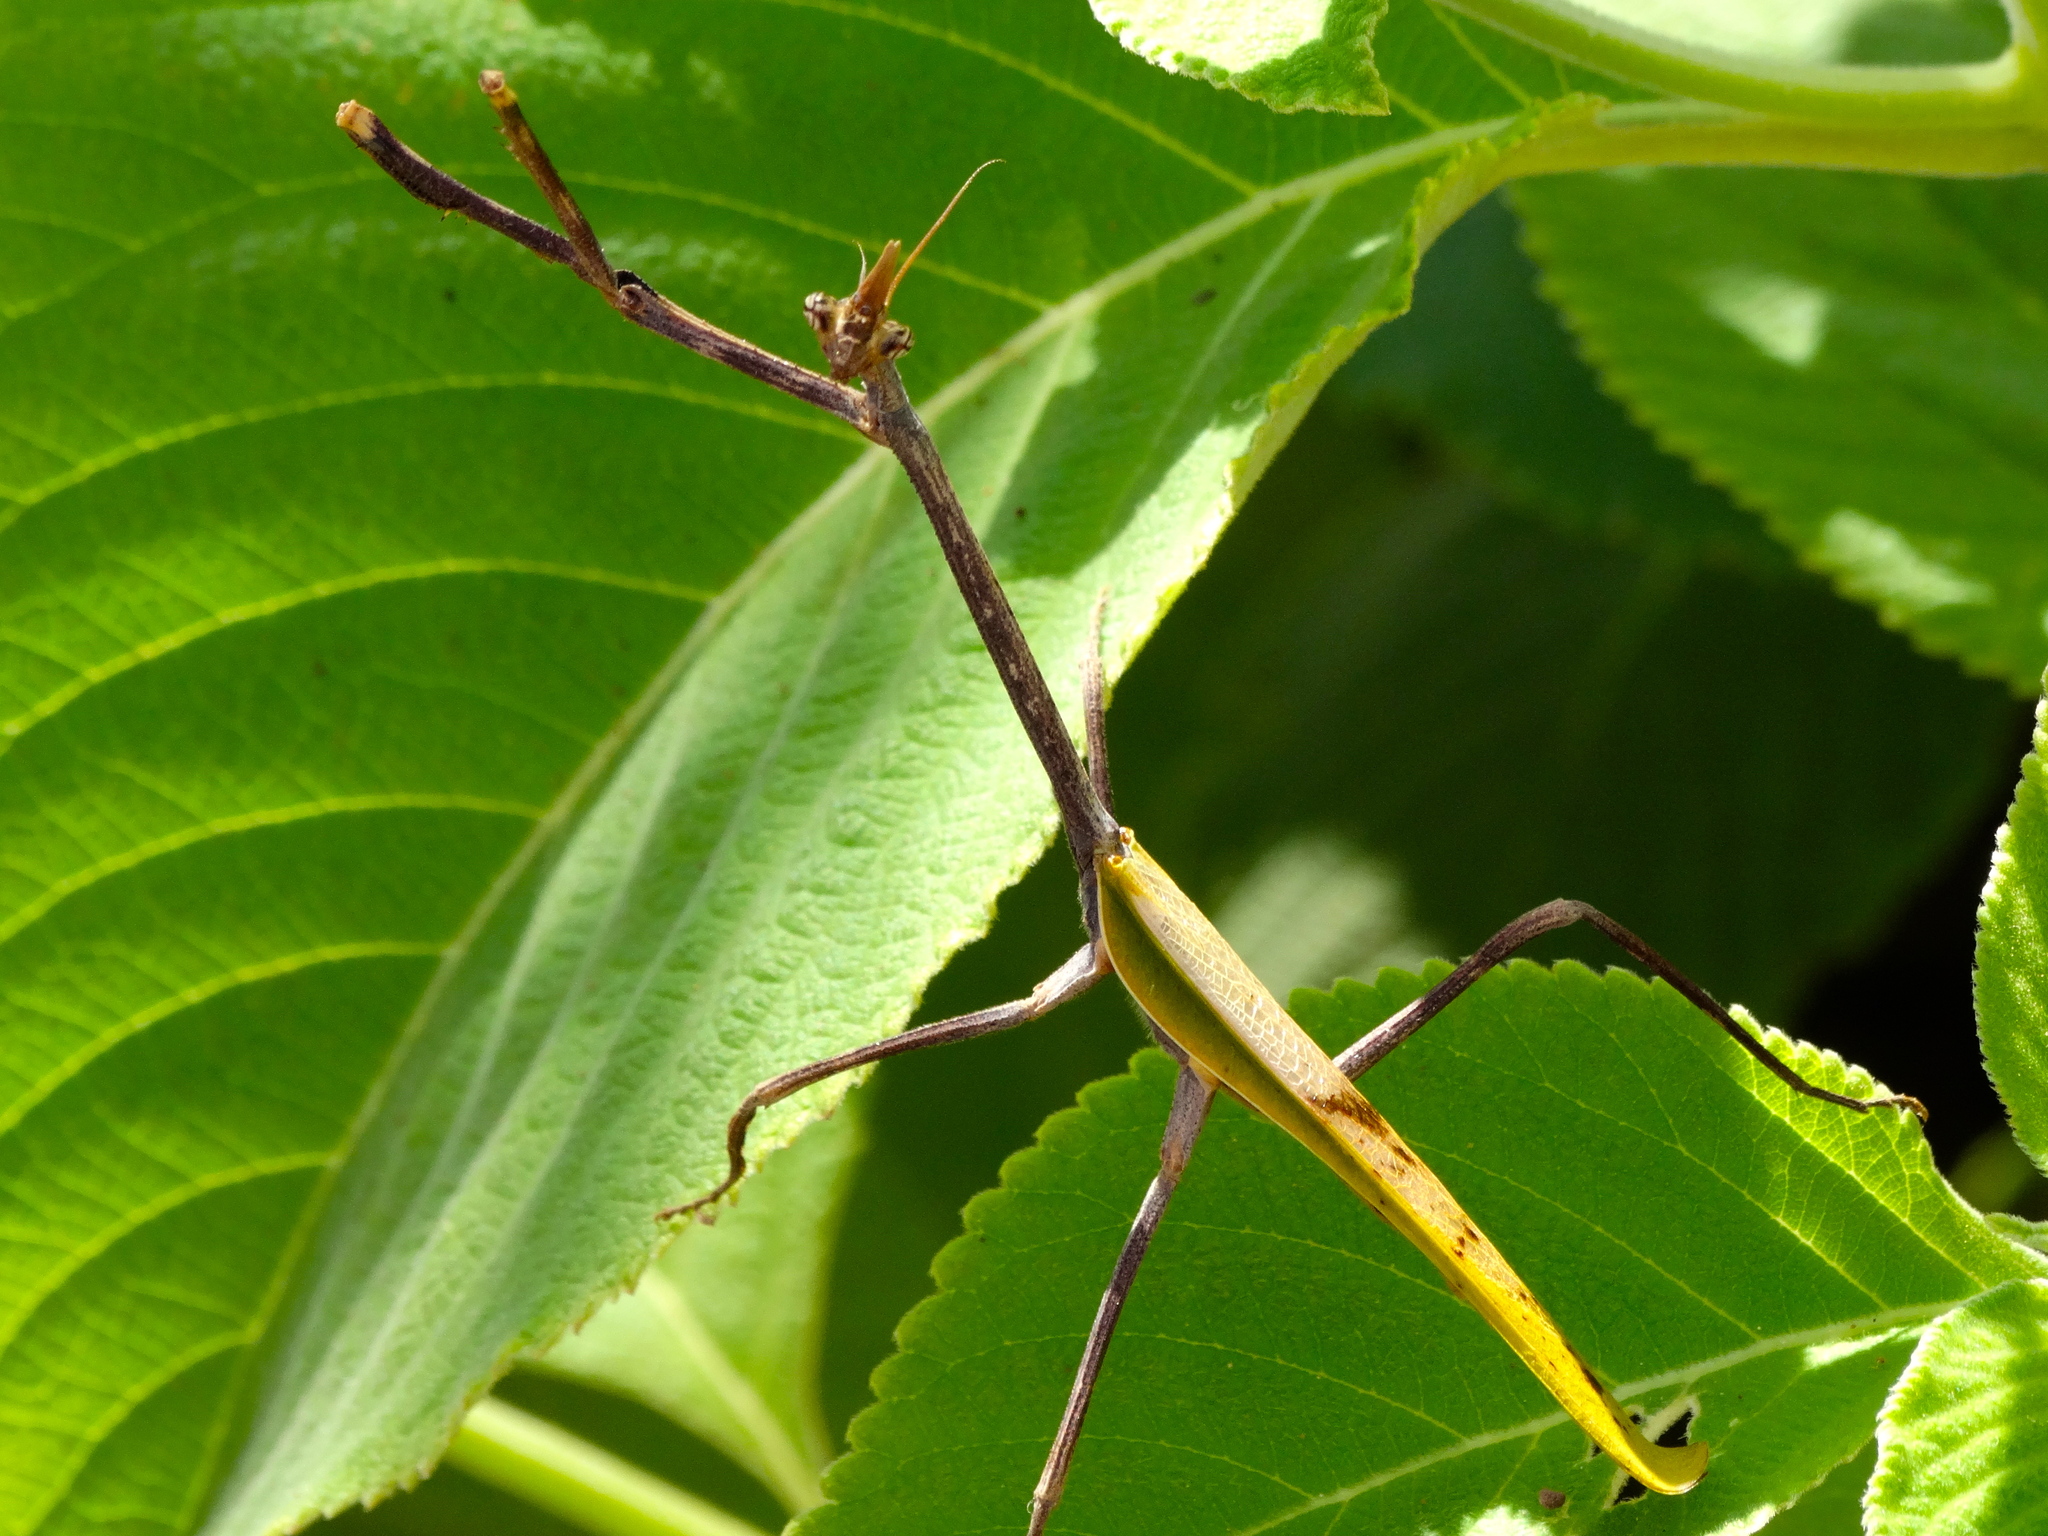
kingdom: Animalia
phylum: Arthropoda
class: Insecta
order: Mantodea
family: Mantidae
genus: Pseudovates
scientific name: Pseudovates chlorophaea
